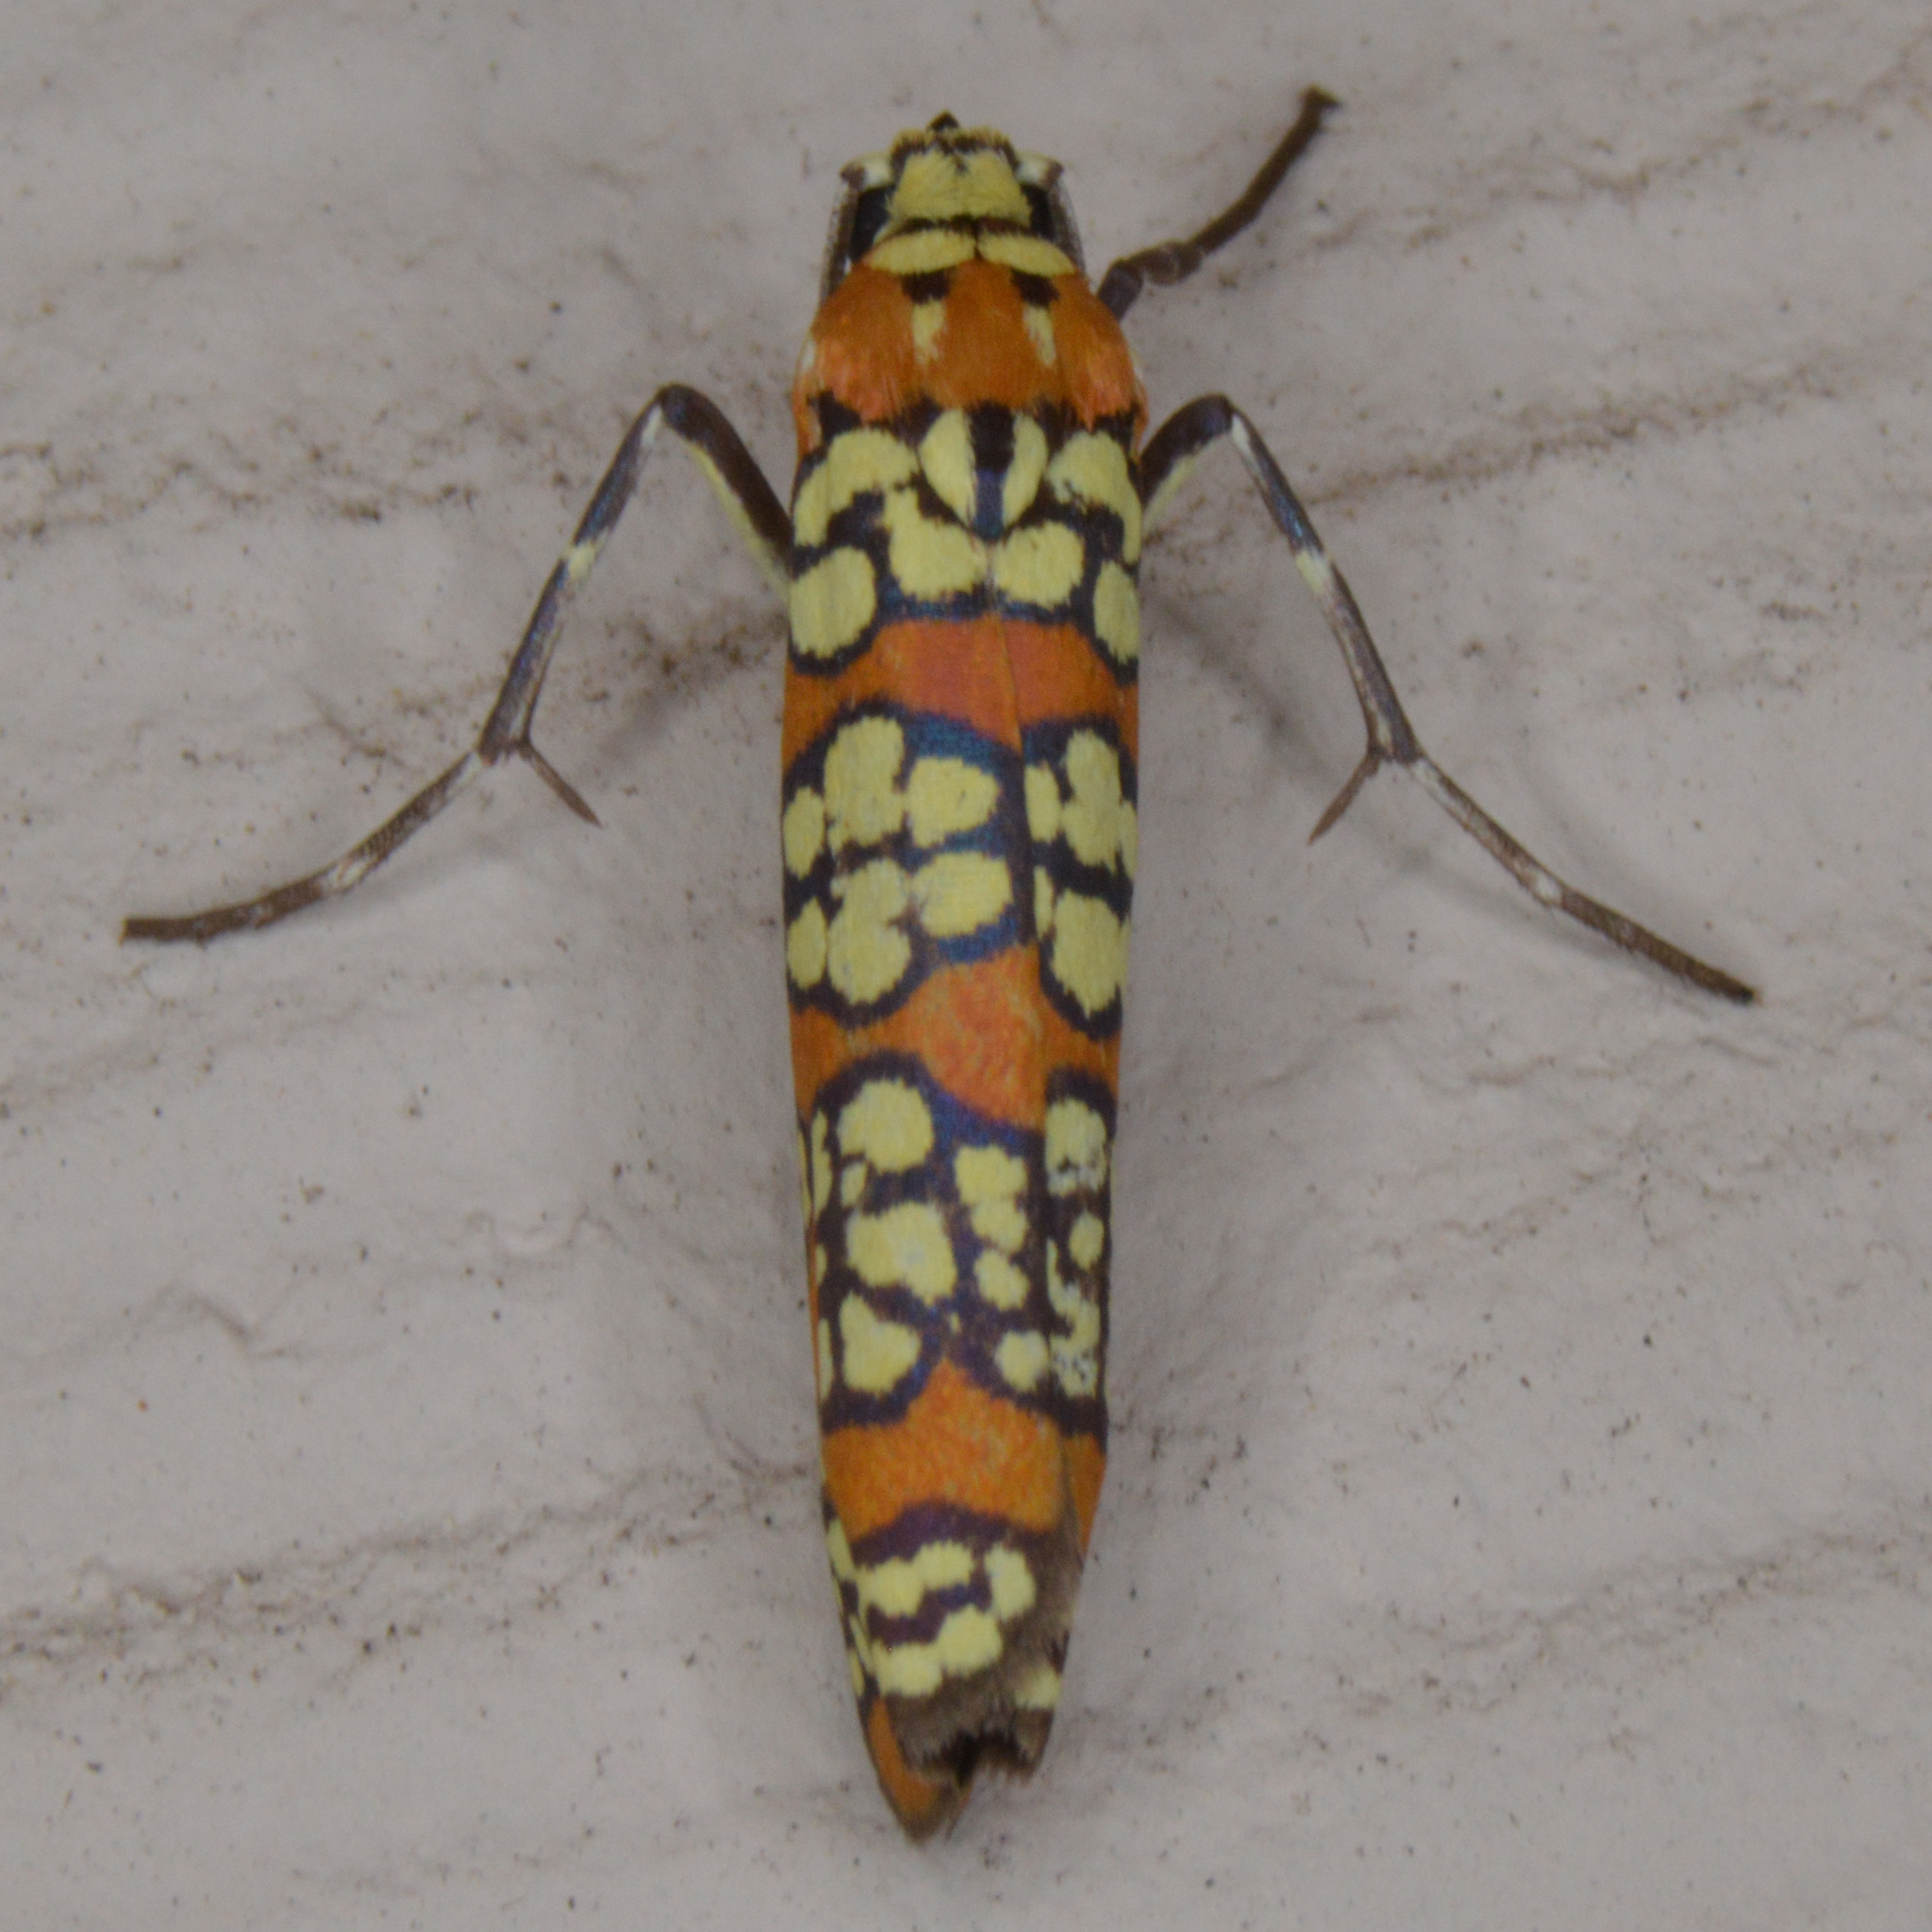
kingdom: Animalia
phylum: Arthropoda
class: Insecta
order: Lepidoptera
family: Attevidae
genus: Atteva
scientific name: Atteva punctella
